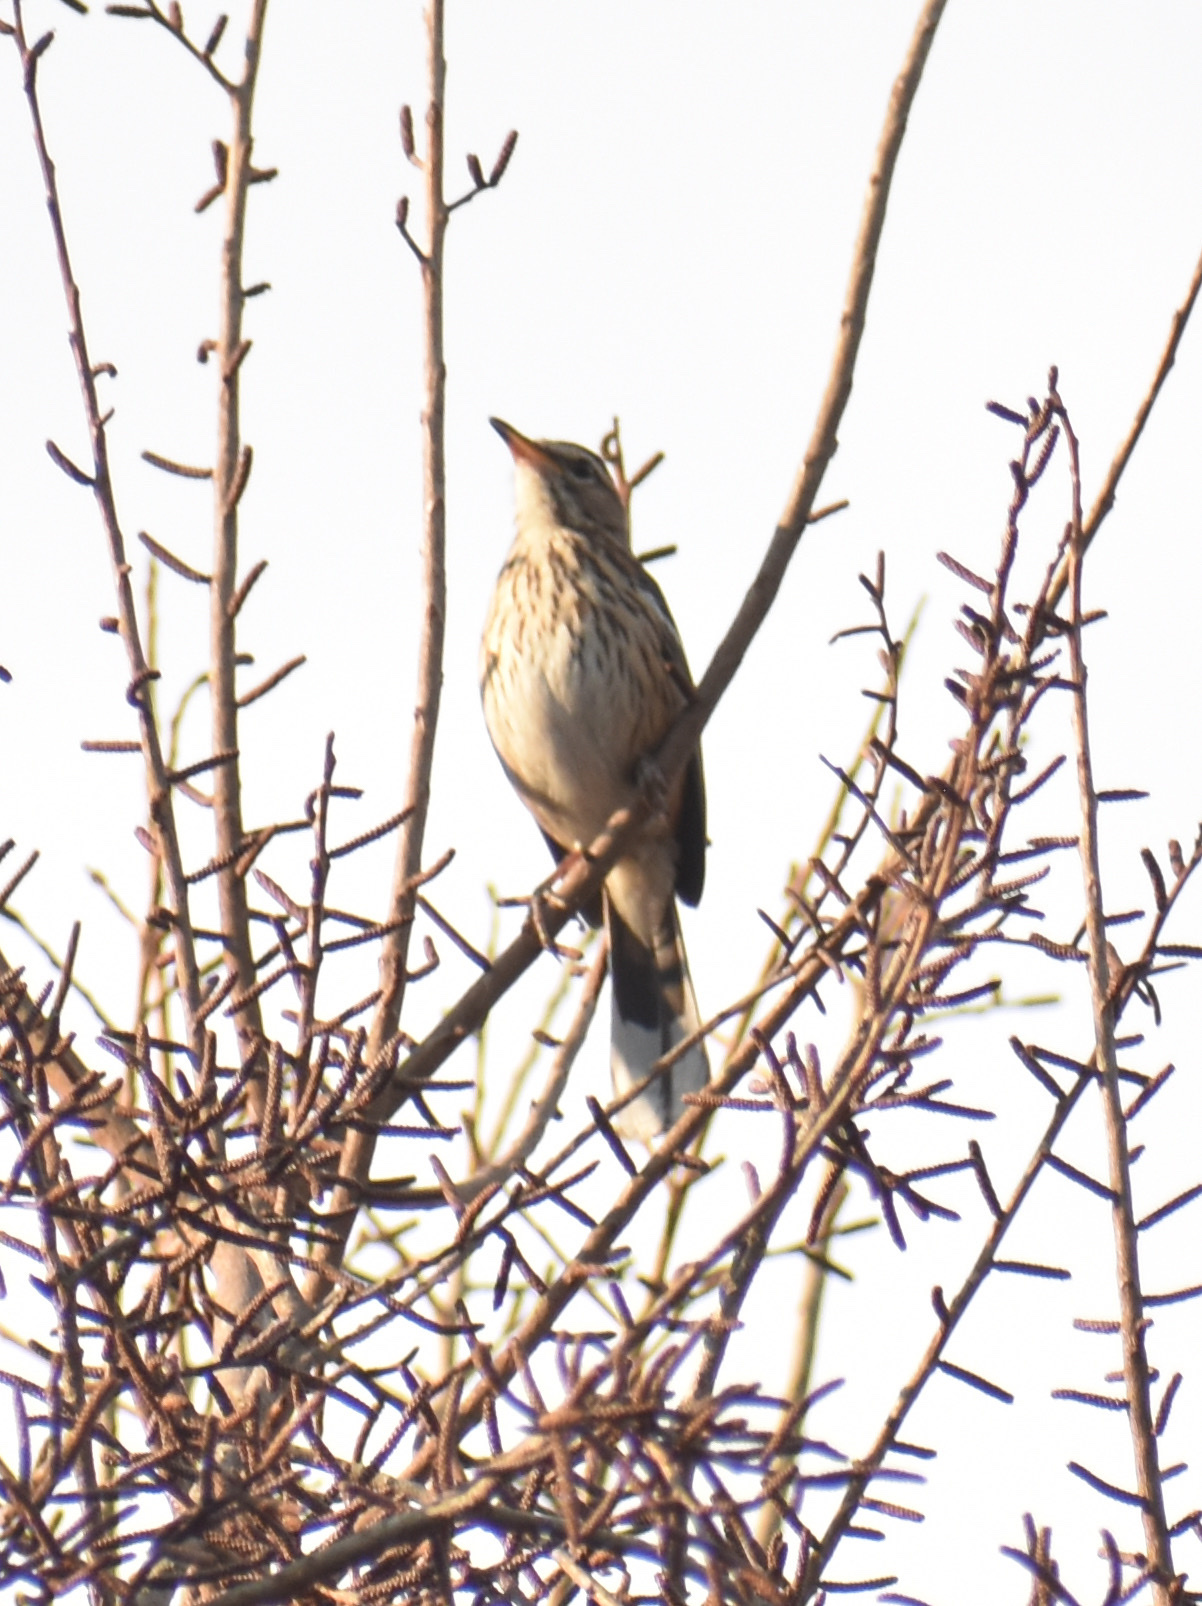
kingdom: Animalia
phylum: Chordata
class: Aves
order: Passeriformes
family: Muscicapidae
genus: Erythropygia
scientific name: Erythropygia leucophrys
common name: White-browed scrub robin
